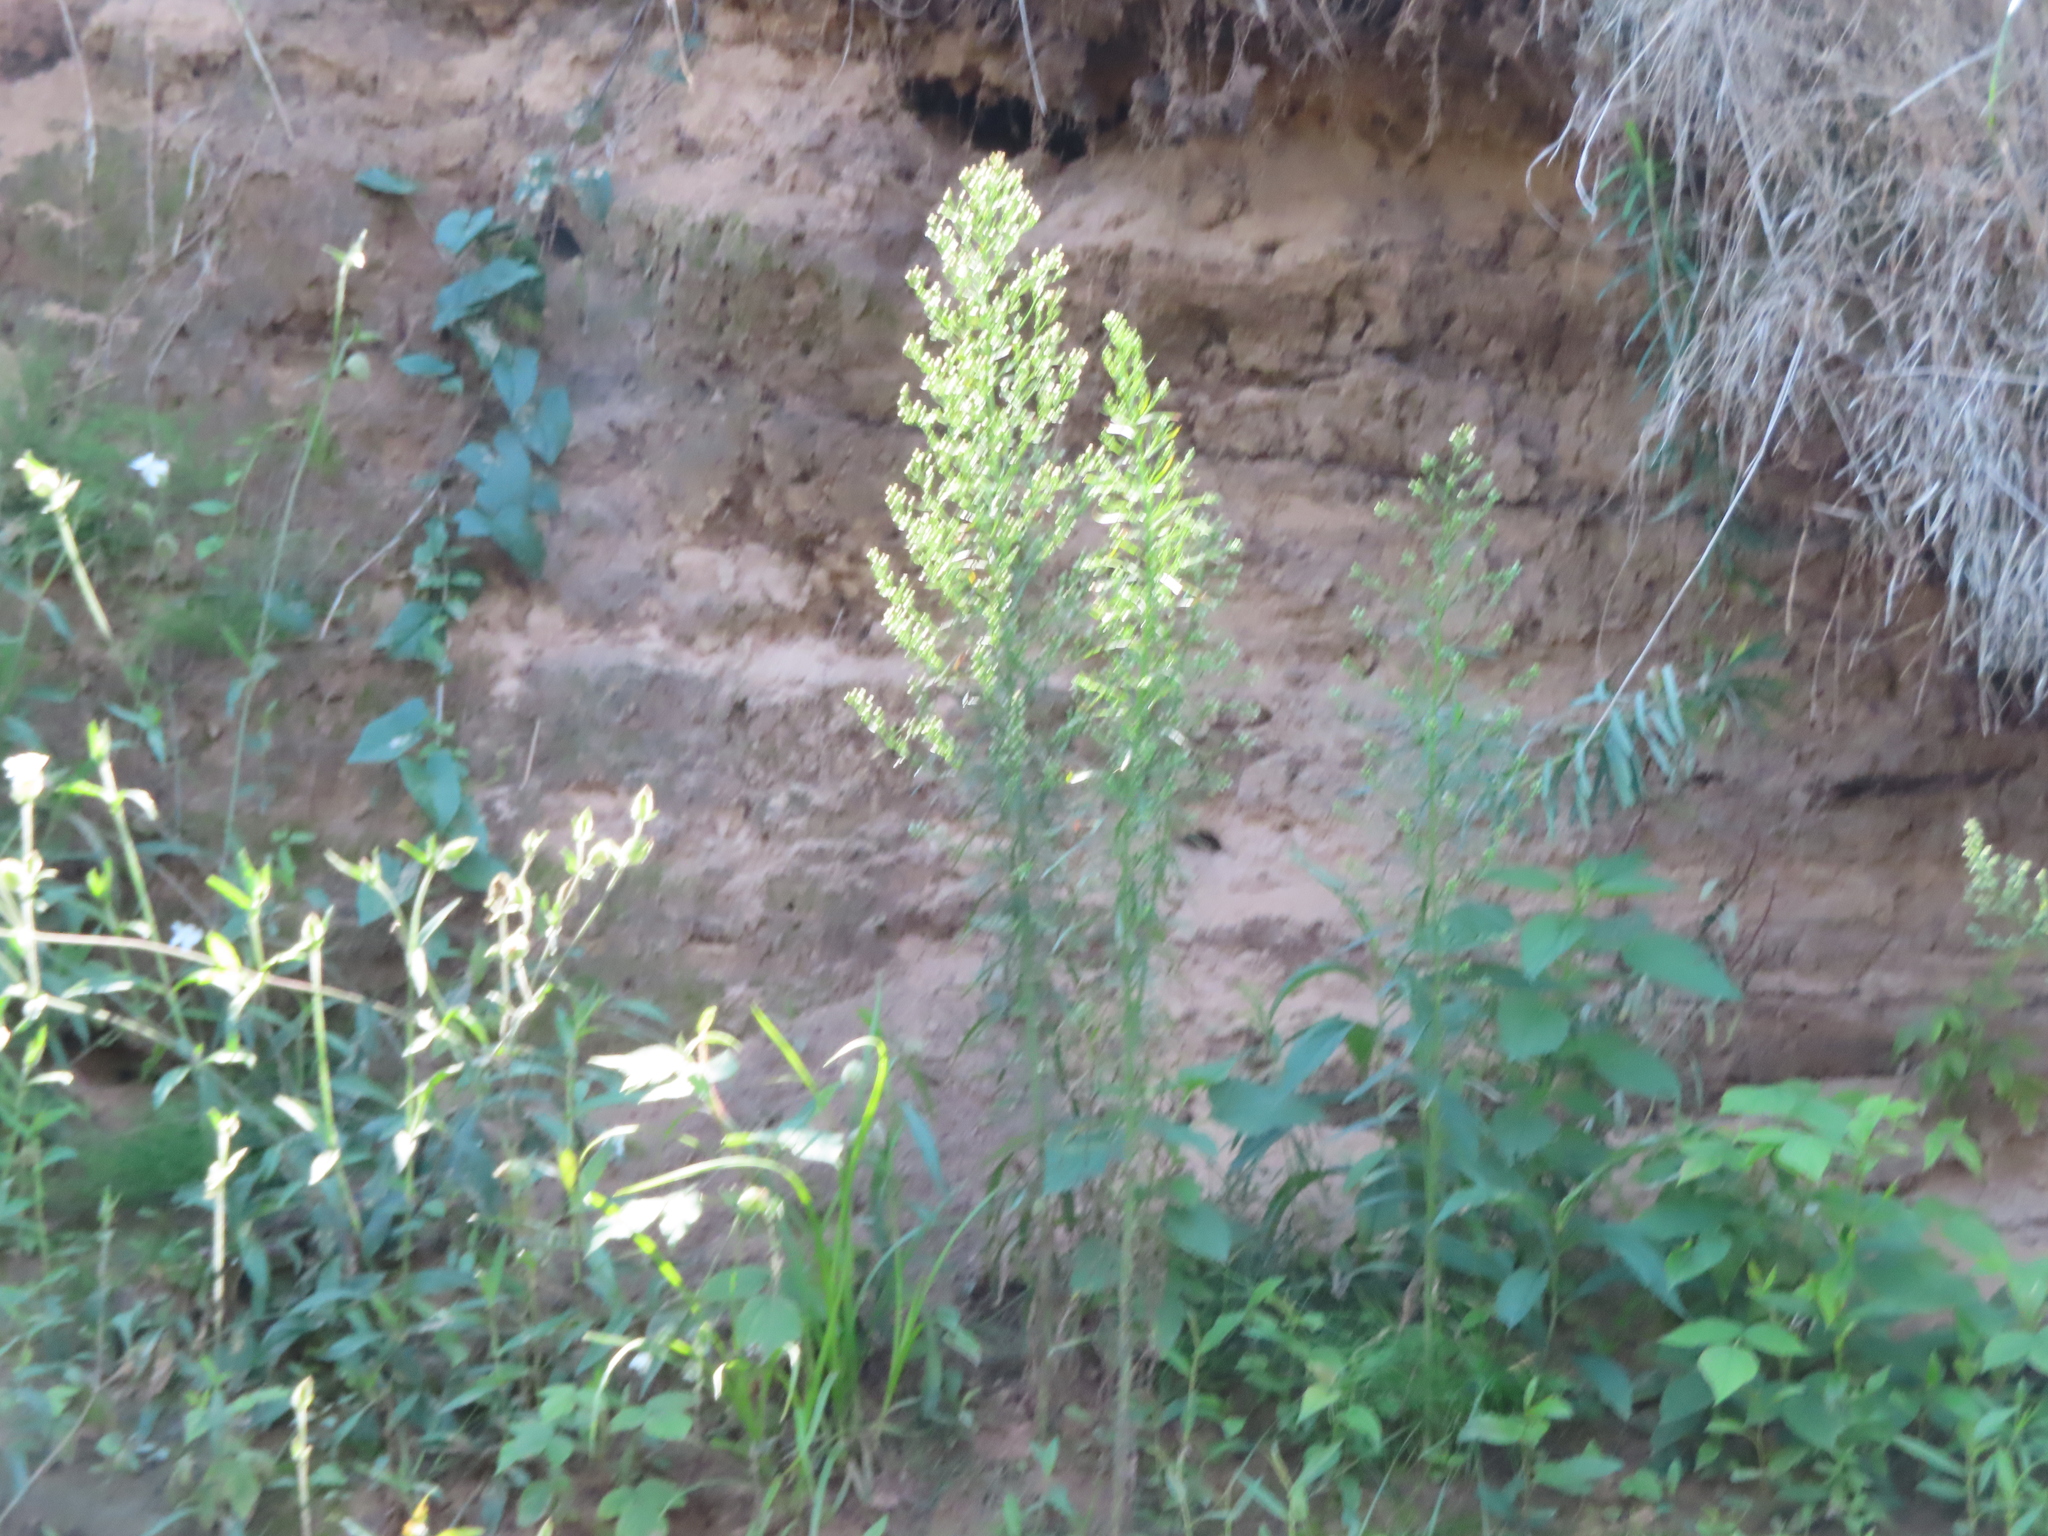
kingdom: Plantae
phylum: Tracheophyta
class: Magnoliopsida
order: Asterales
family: Asteraceae
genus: Erigeron
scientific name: Erigeron canadensis
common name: Canadian fleabane
